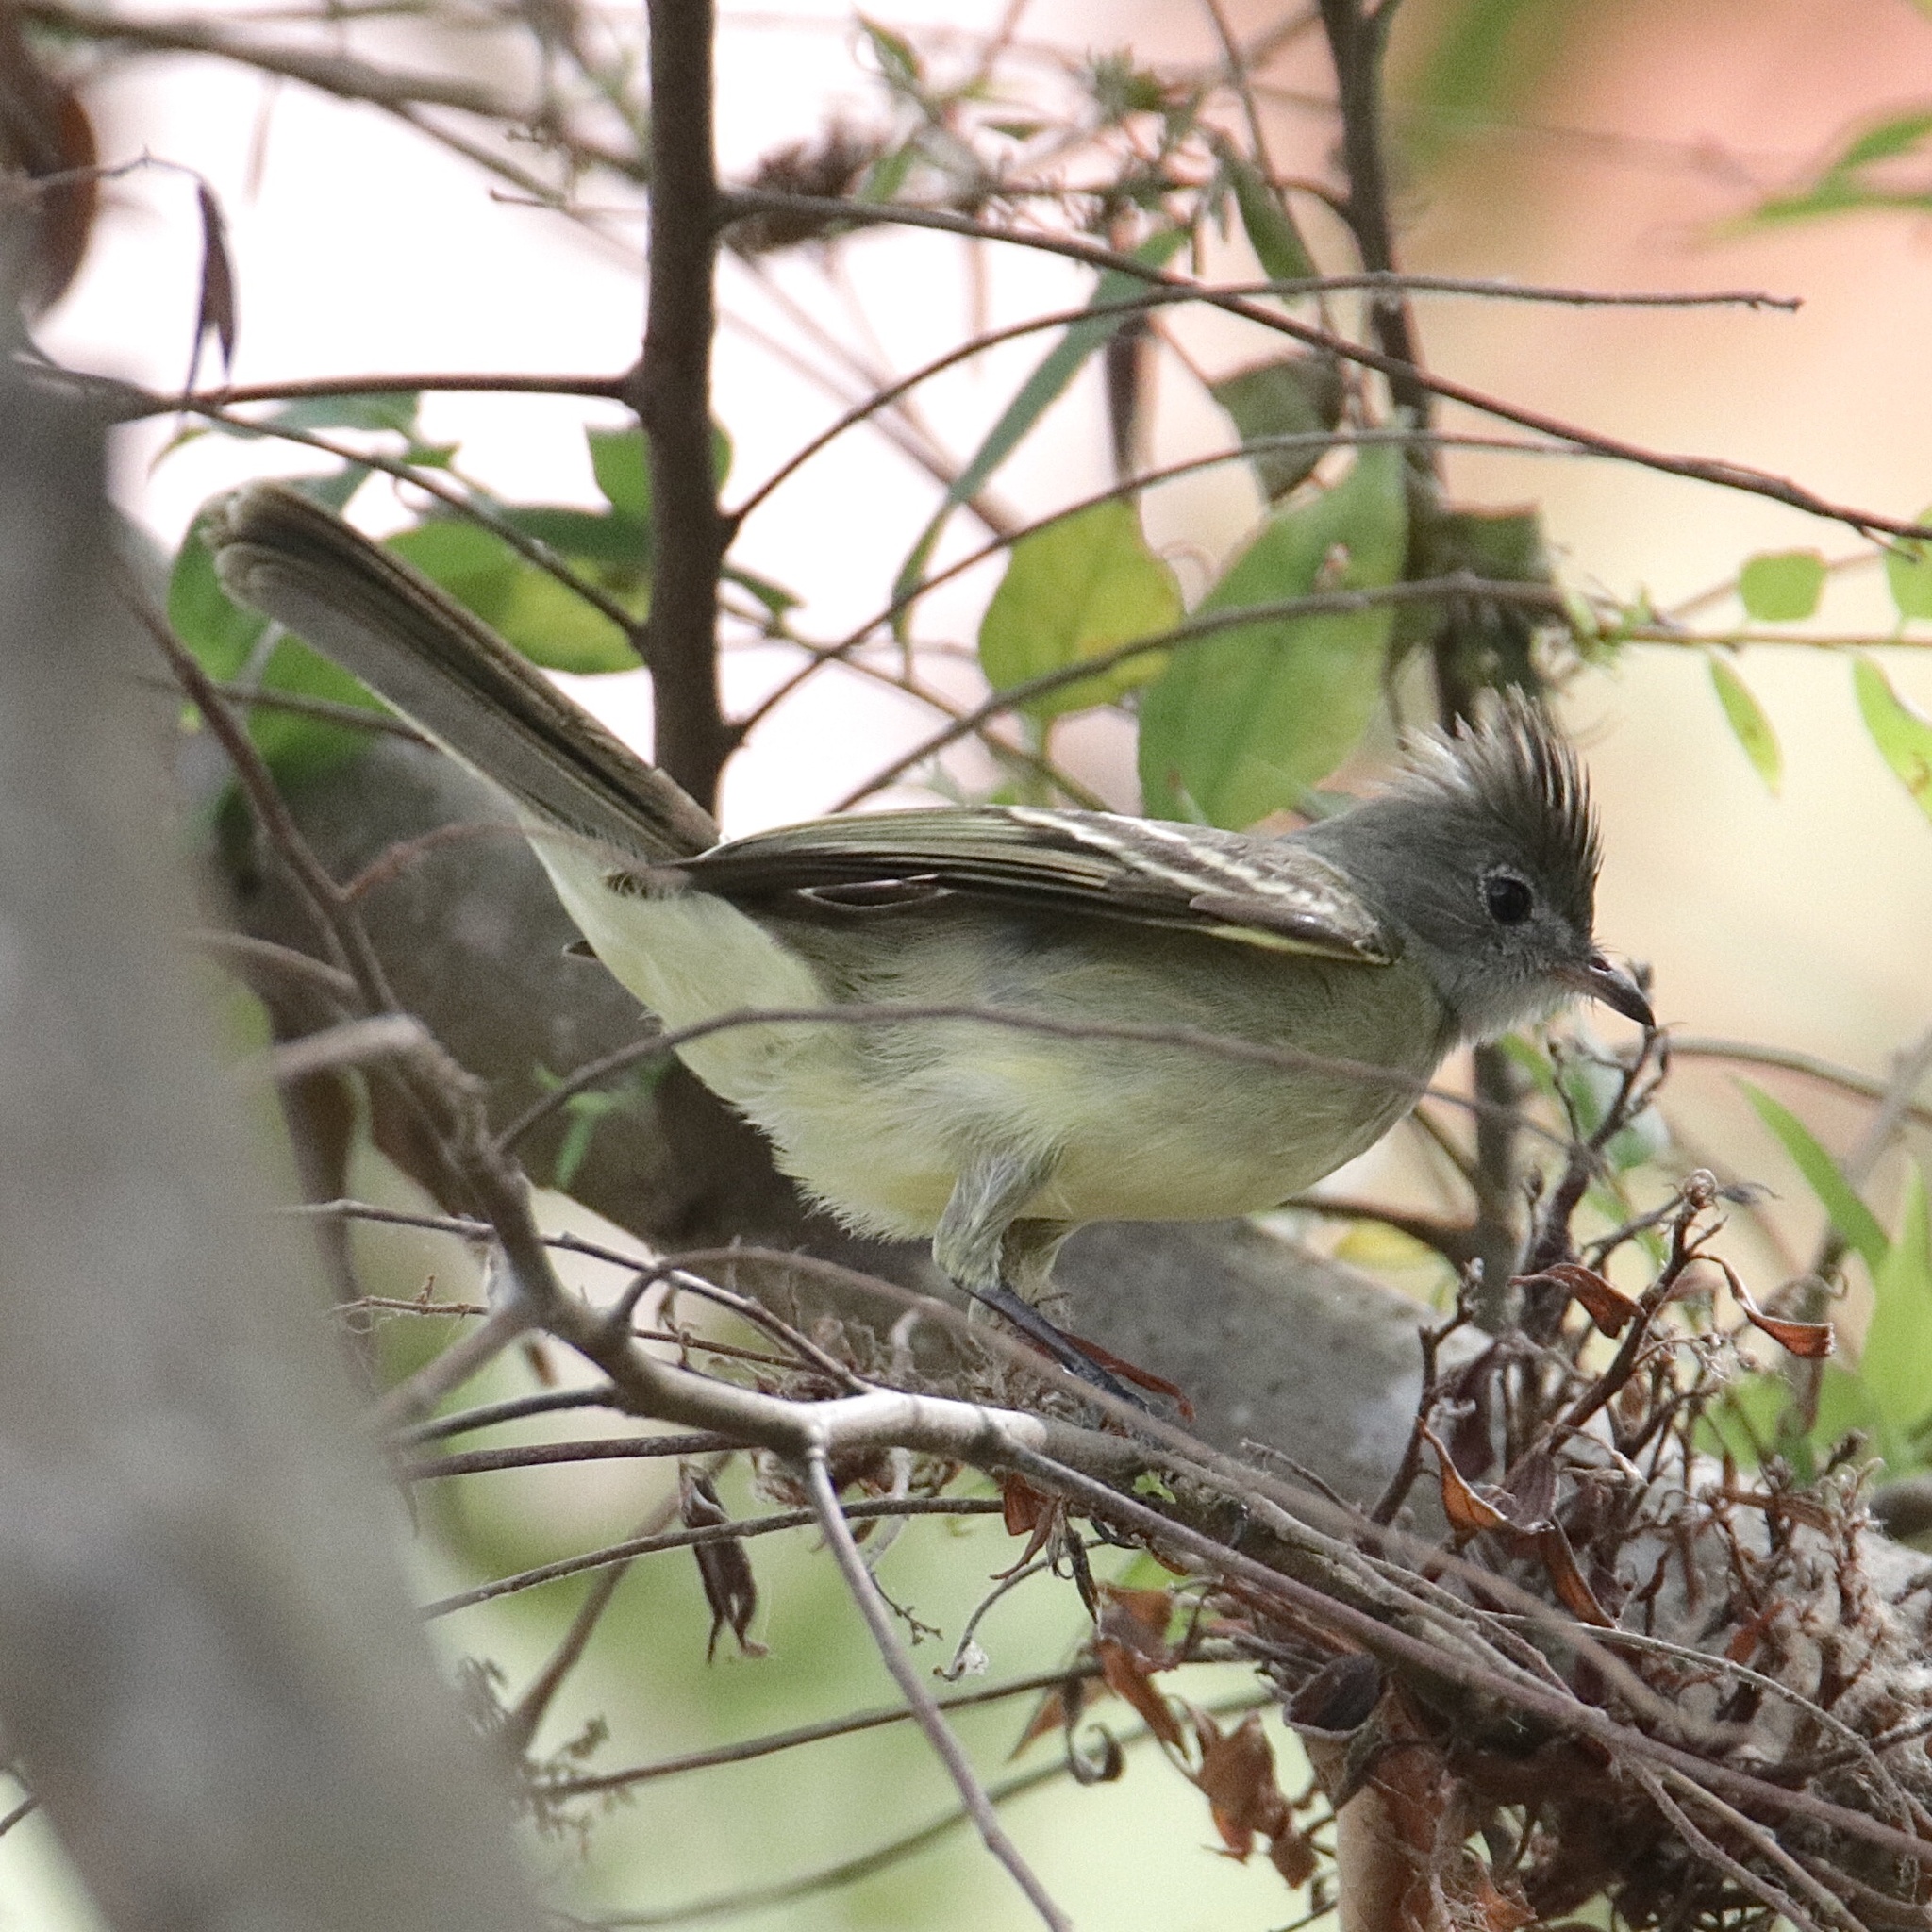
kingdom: Animalia
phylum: Chordata
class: Aves
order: Passeriformes
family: Tyrannidae
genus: Elaenia
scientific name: Elaenia flavogaster
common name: Yellow-bellied elaenia
